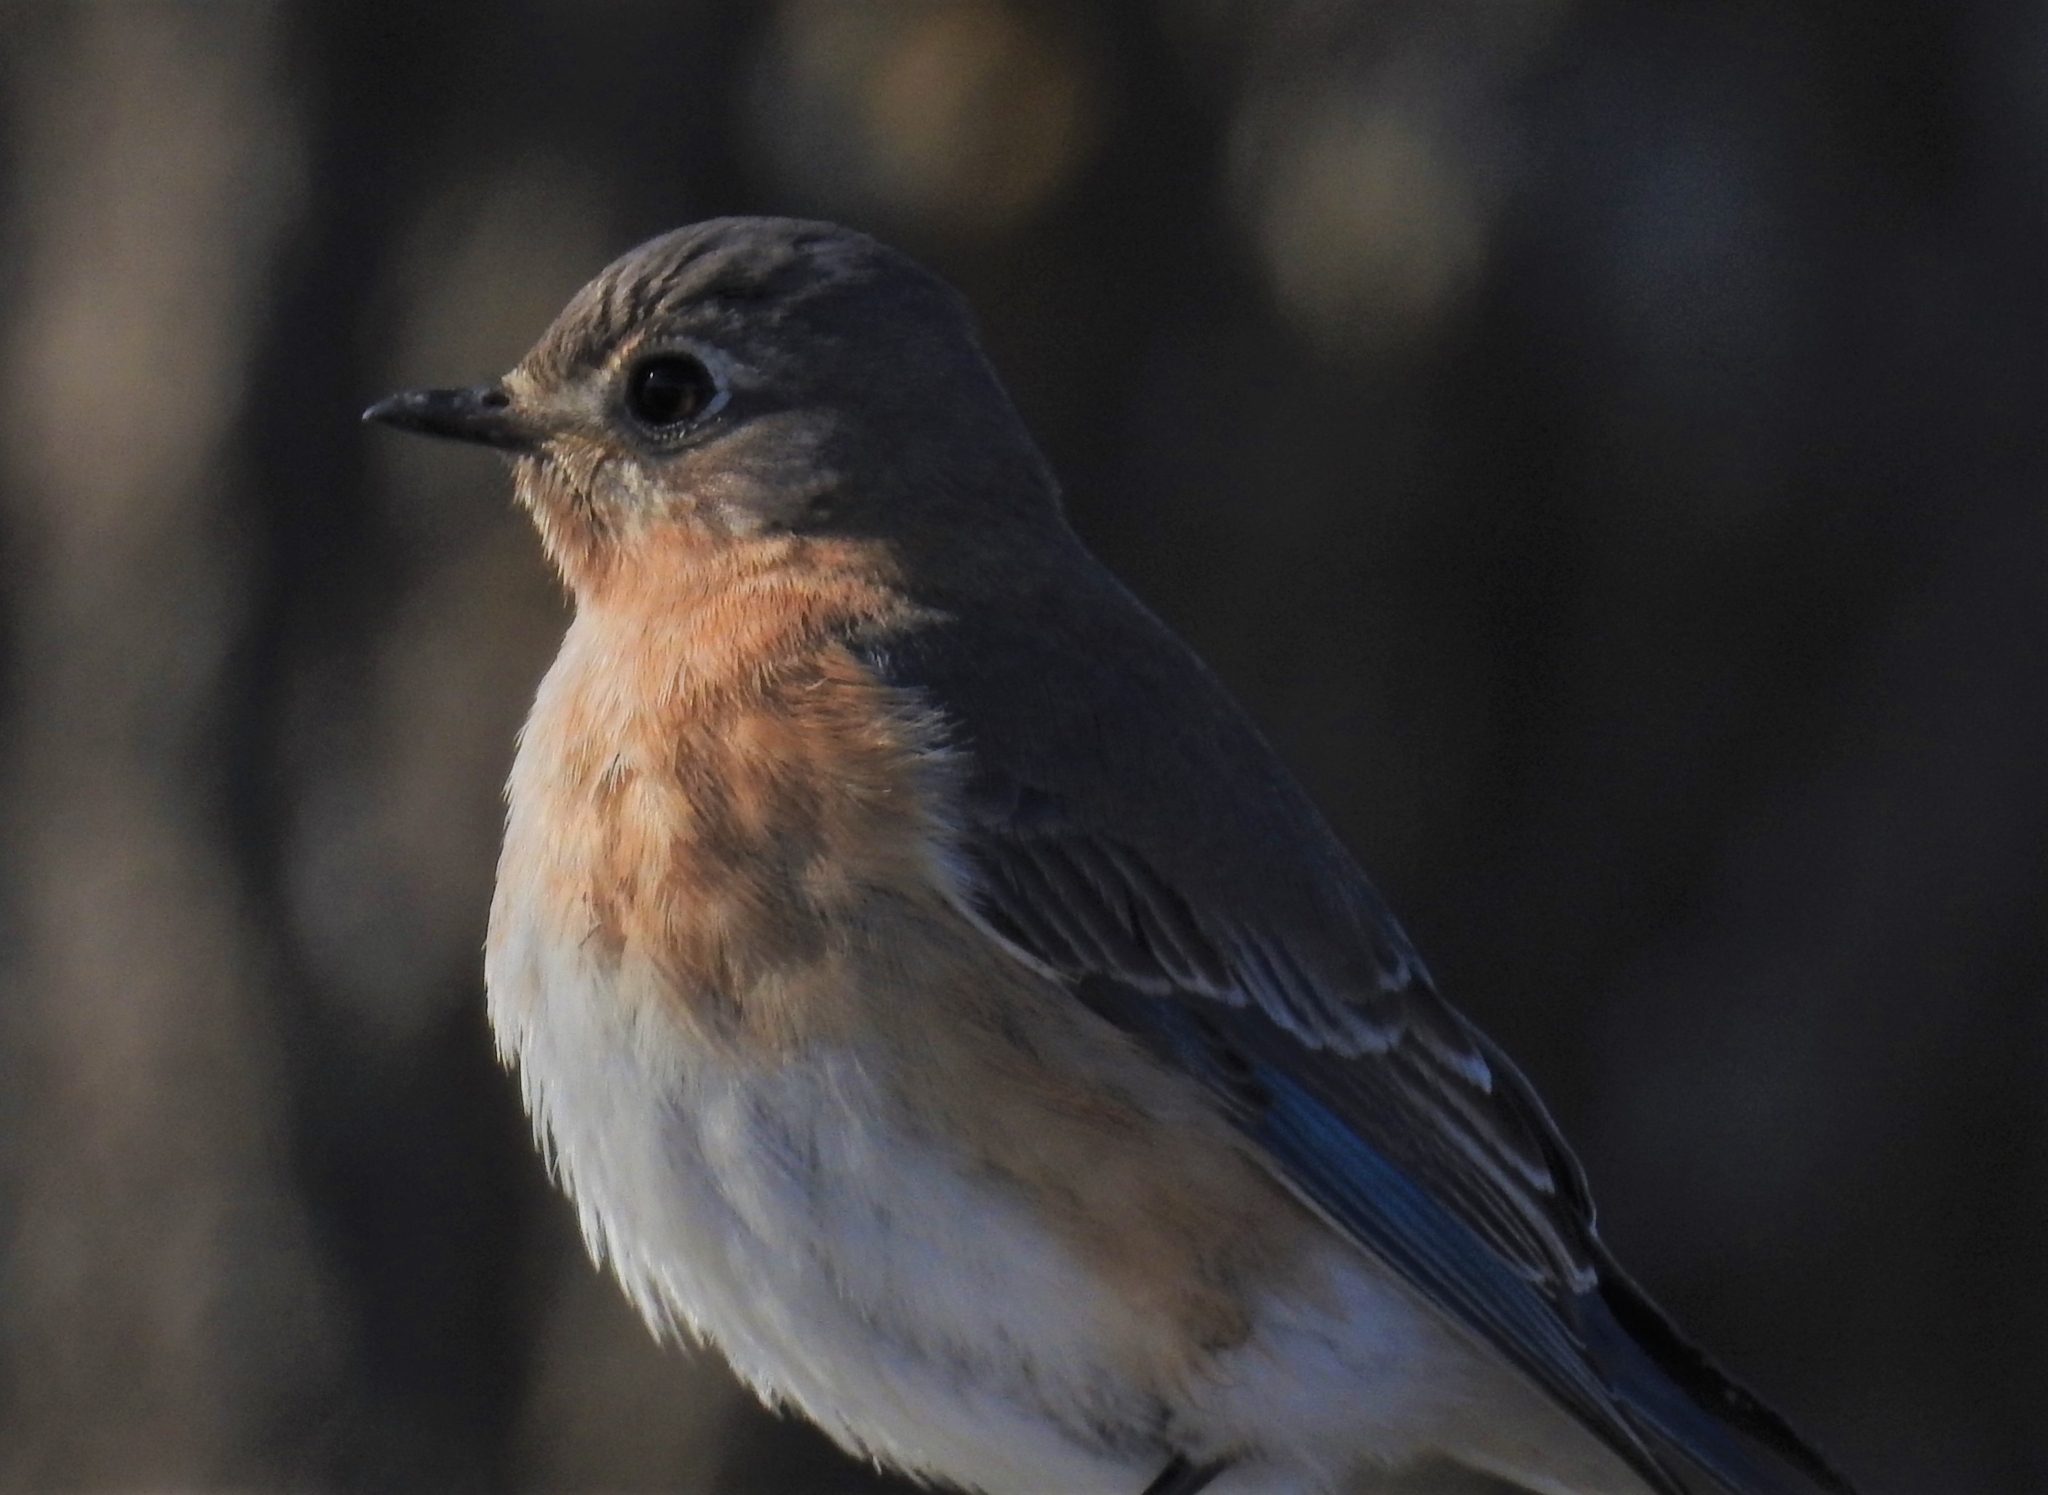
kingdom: Animalia
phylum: Chordata
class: Aves
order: Passeriformes
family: Turdidae
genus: Sialia
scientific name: Sialia sialis
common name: Eastern bluebird
